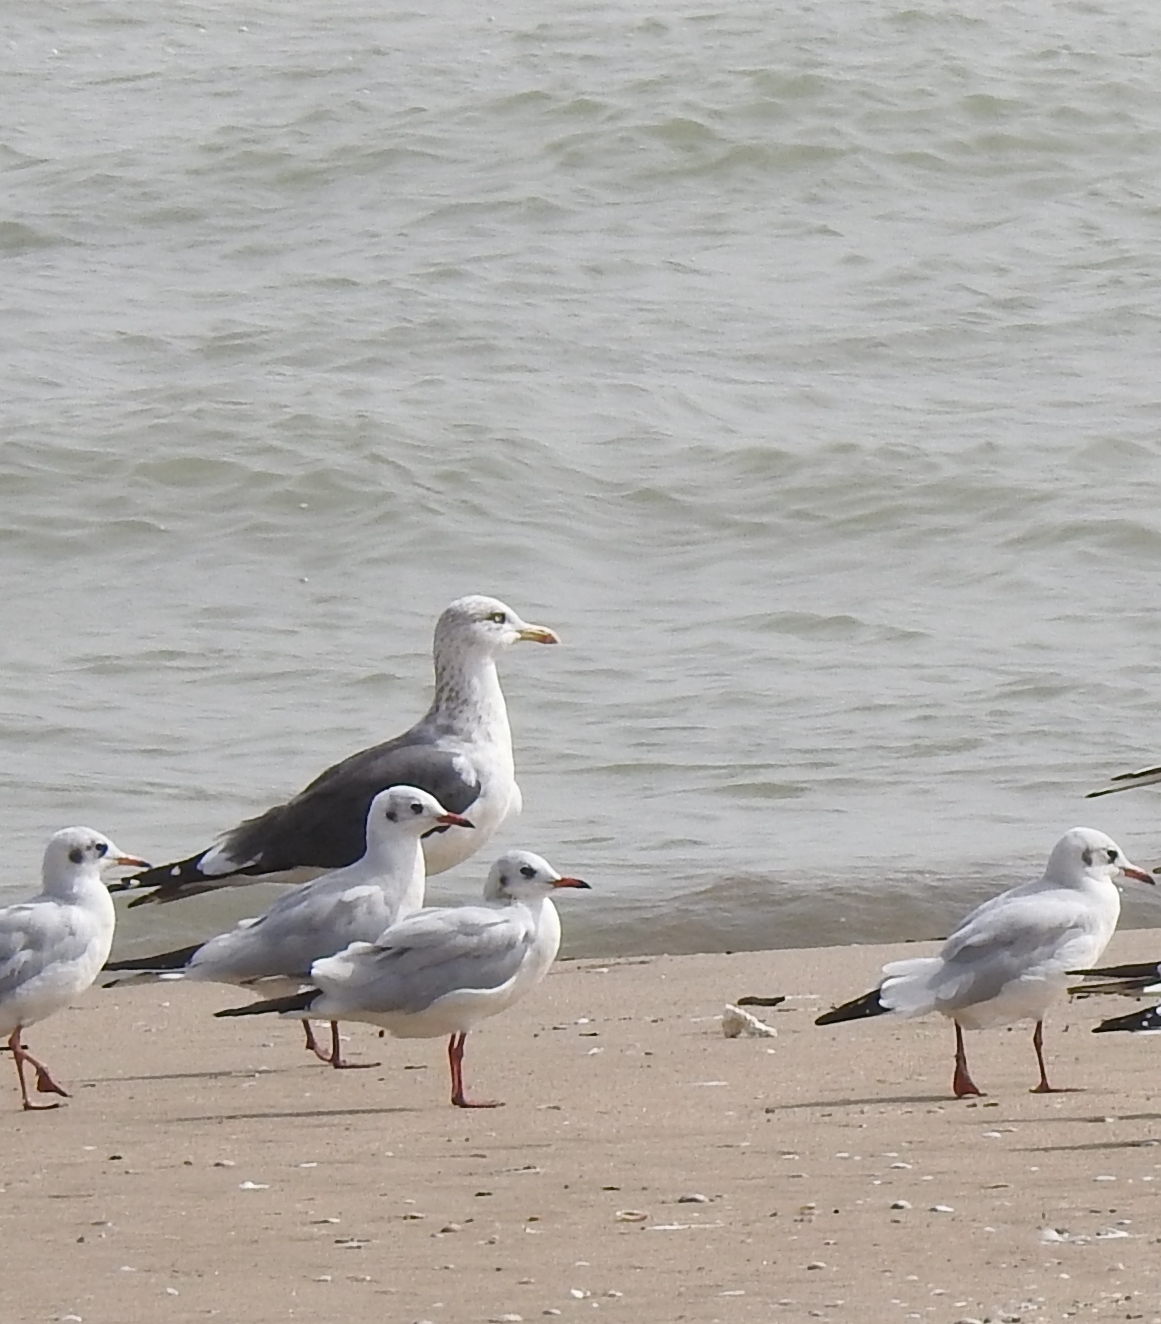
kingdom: Animalia
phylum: Chordata
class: Aves
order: Charadriiformes
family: Laridae
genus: Chroicocephalus
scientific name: Chroicocephalus ridibundus
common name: Black-headed gull
